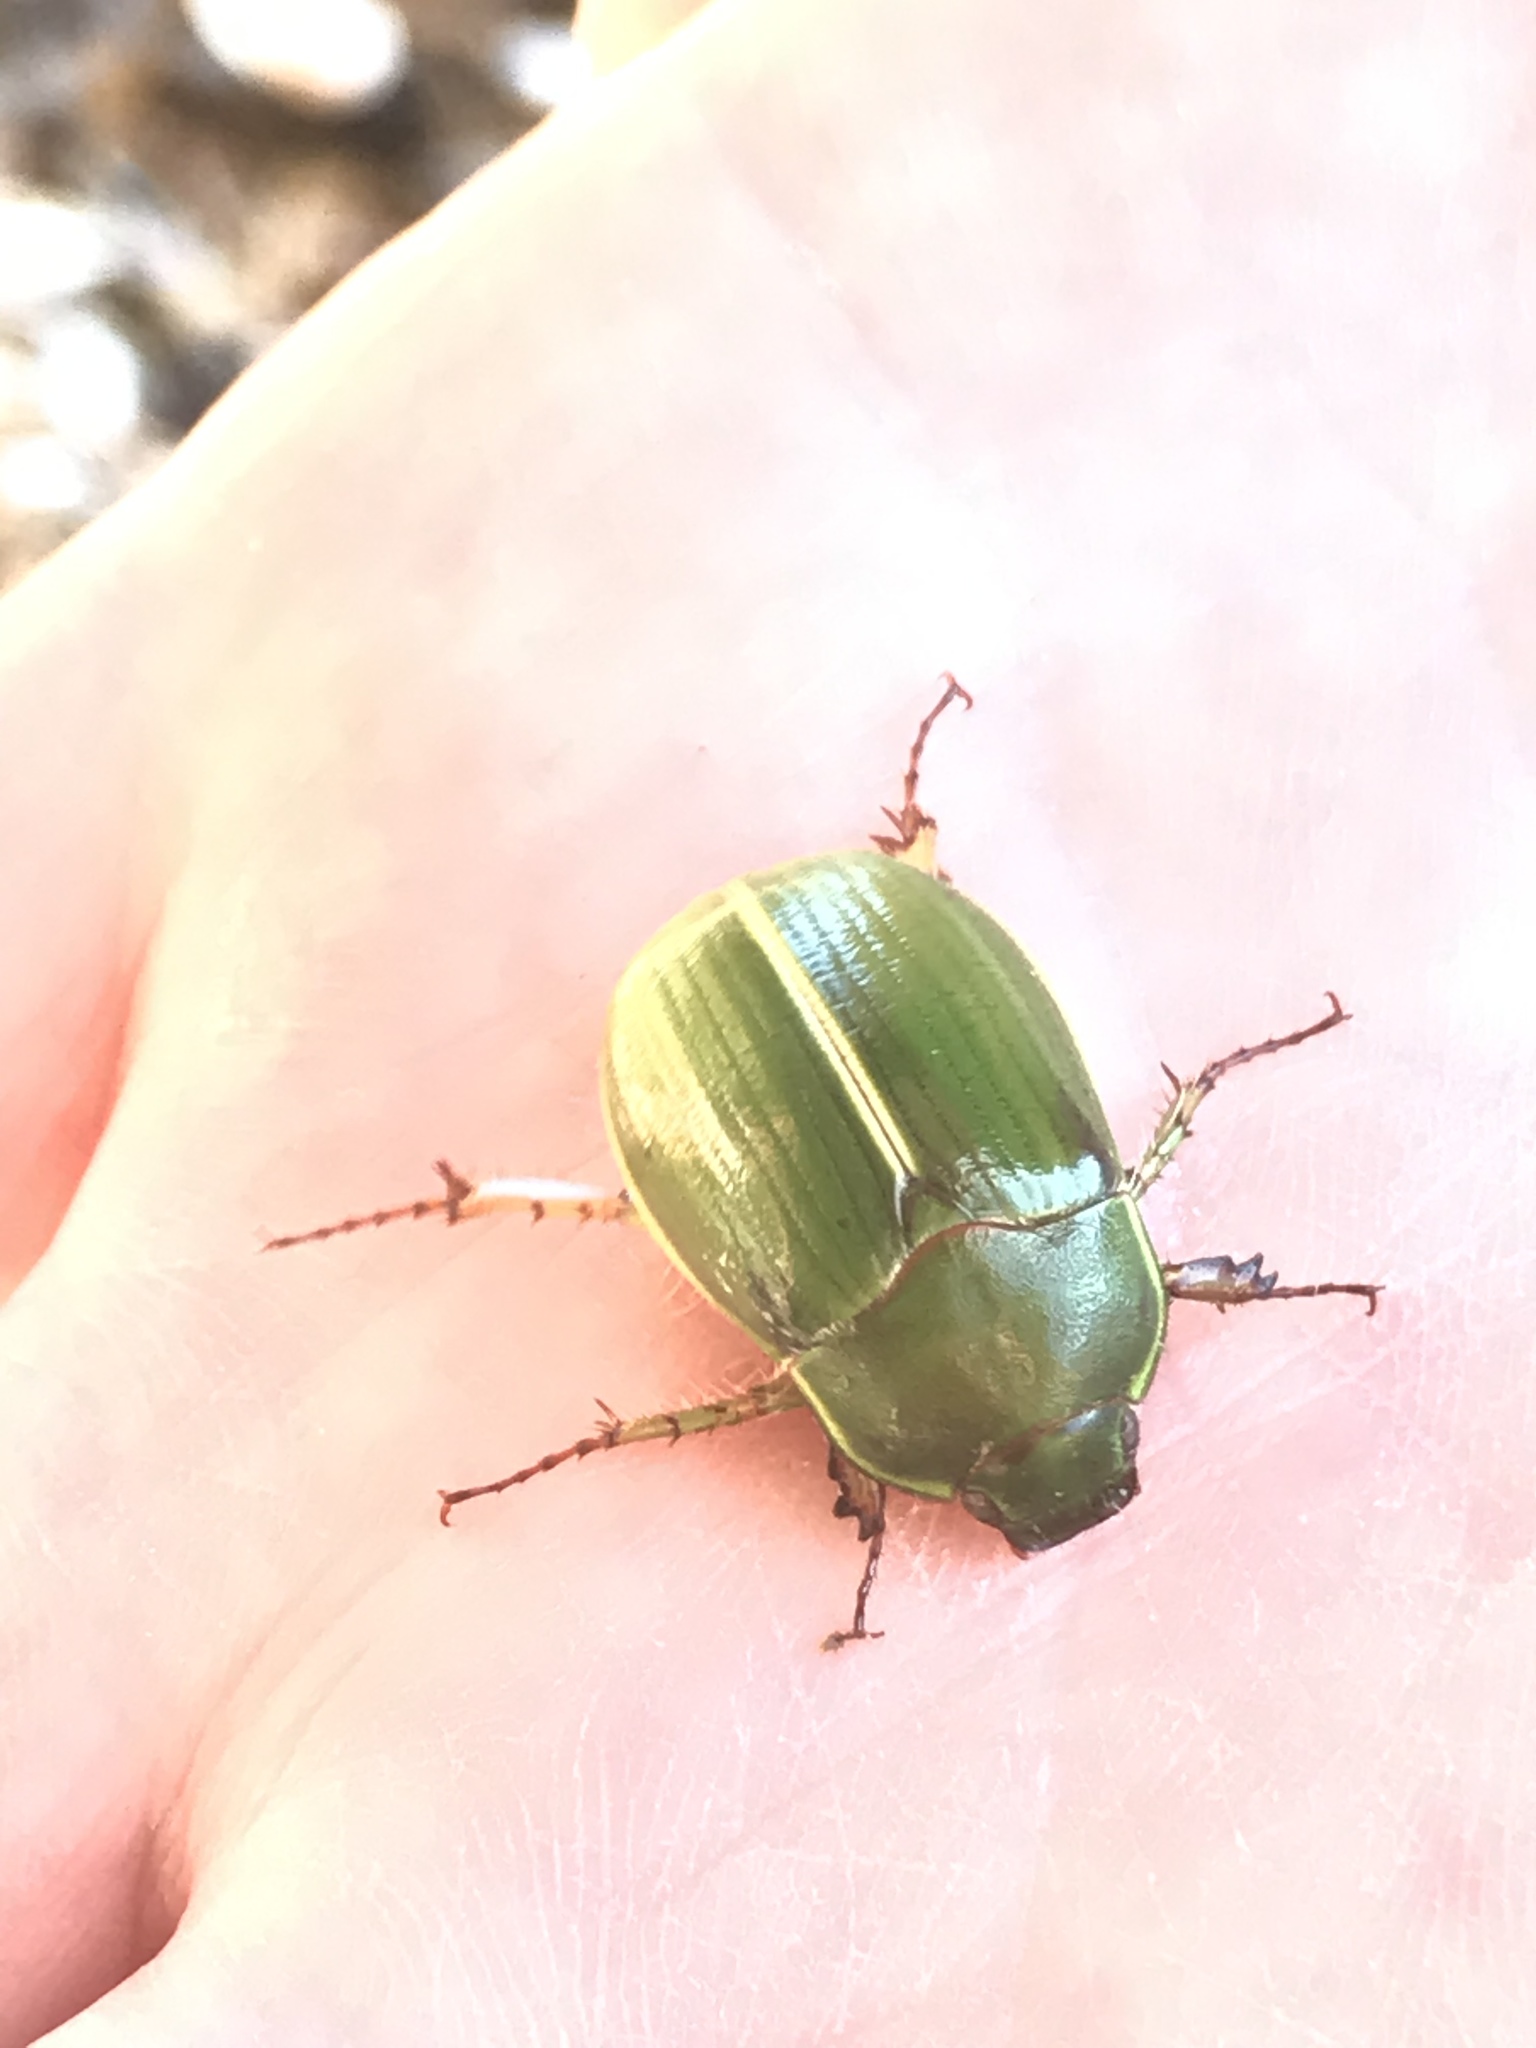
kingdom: Animalia
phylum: Arthropoda
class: Insecta
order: Coleoptera
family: Scarabaeidae
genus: Stethaspis
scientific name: Stethaspis suturalis
